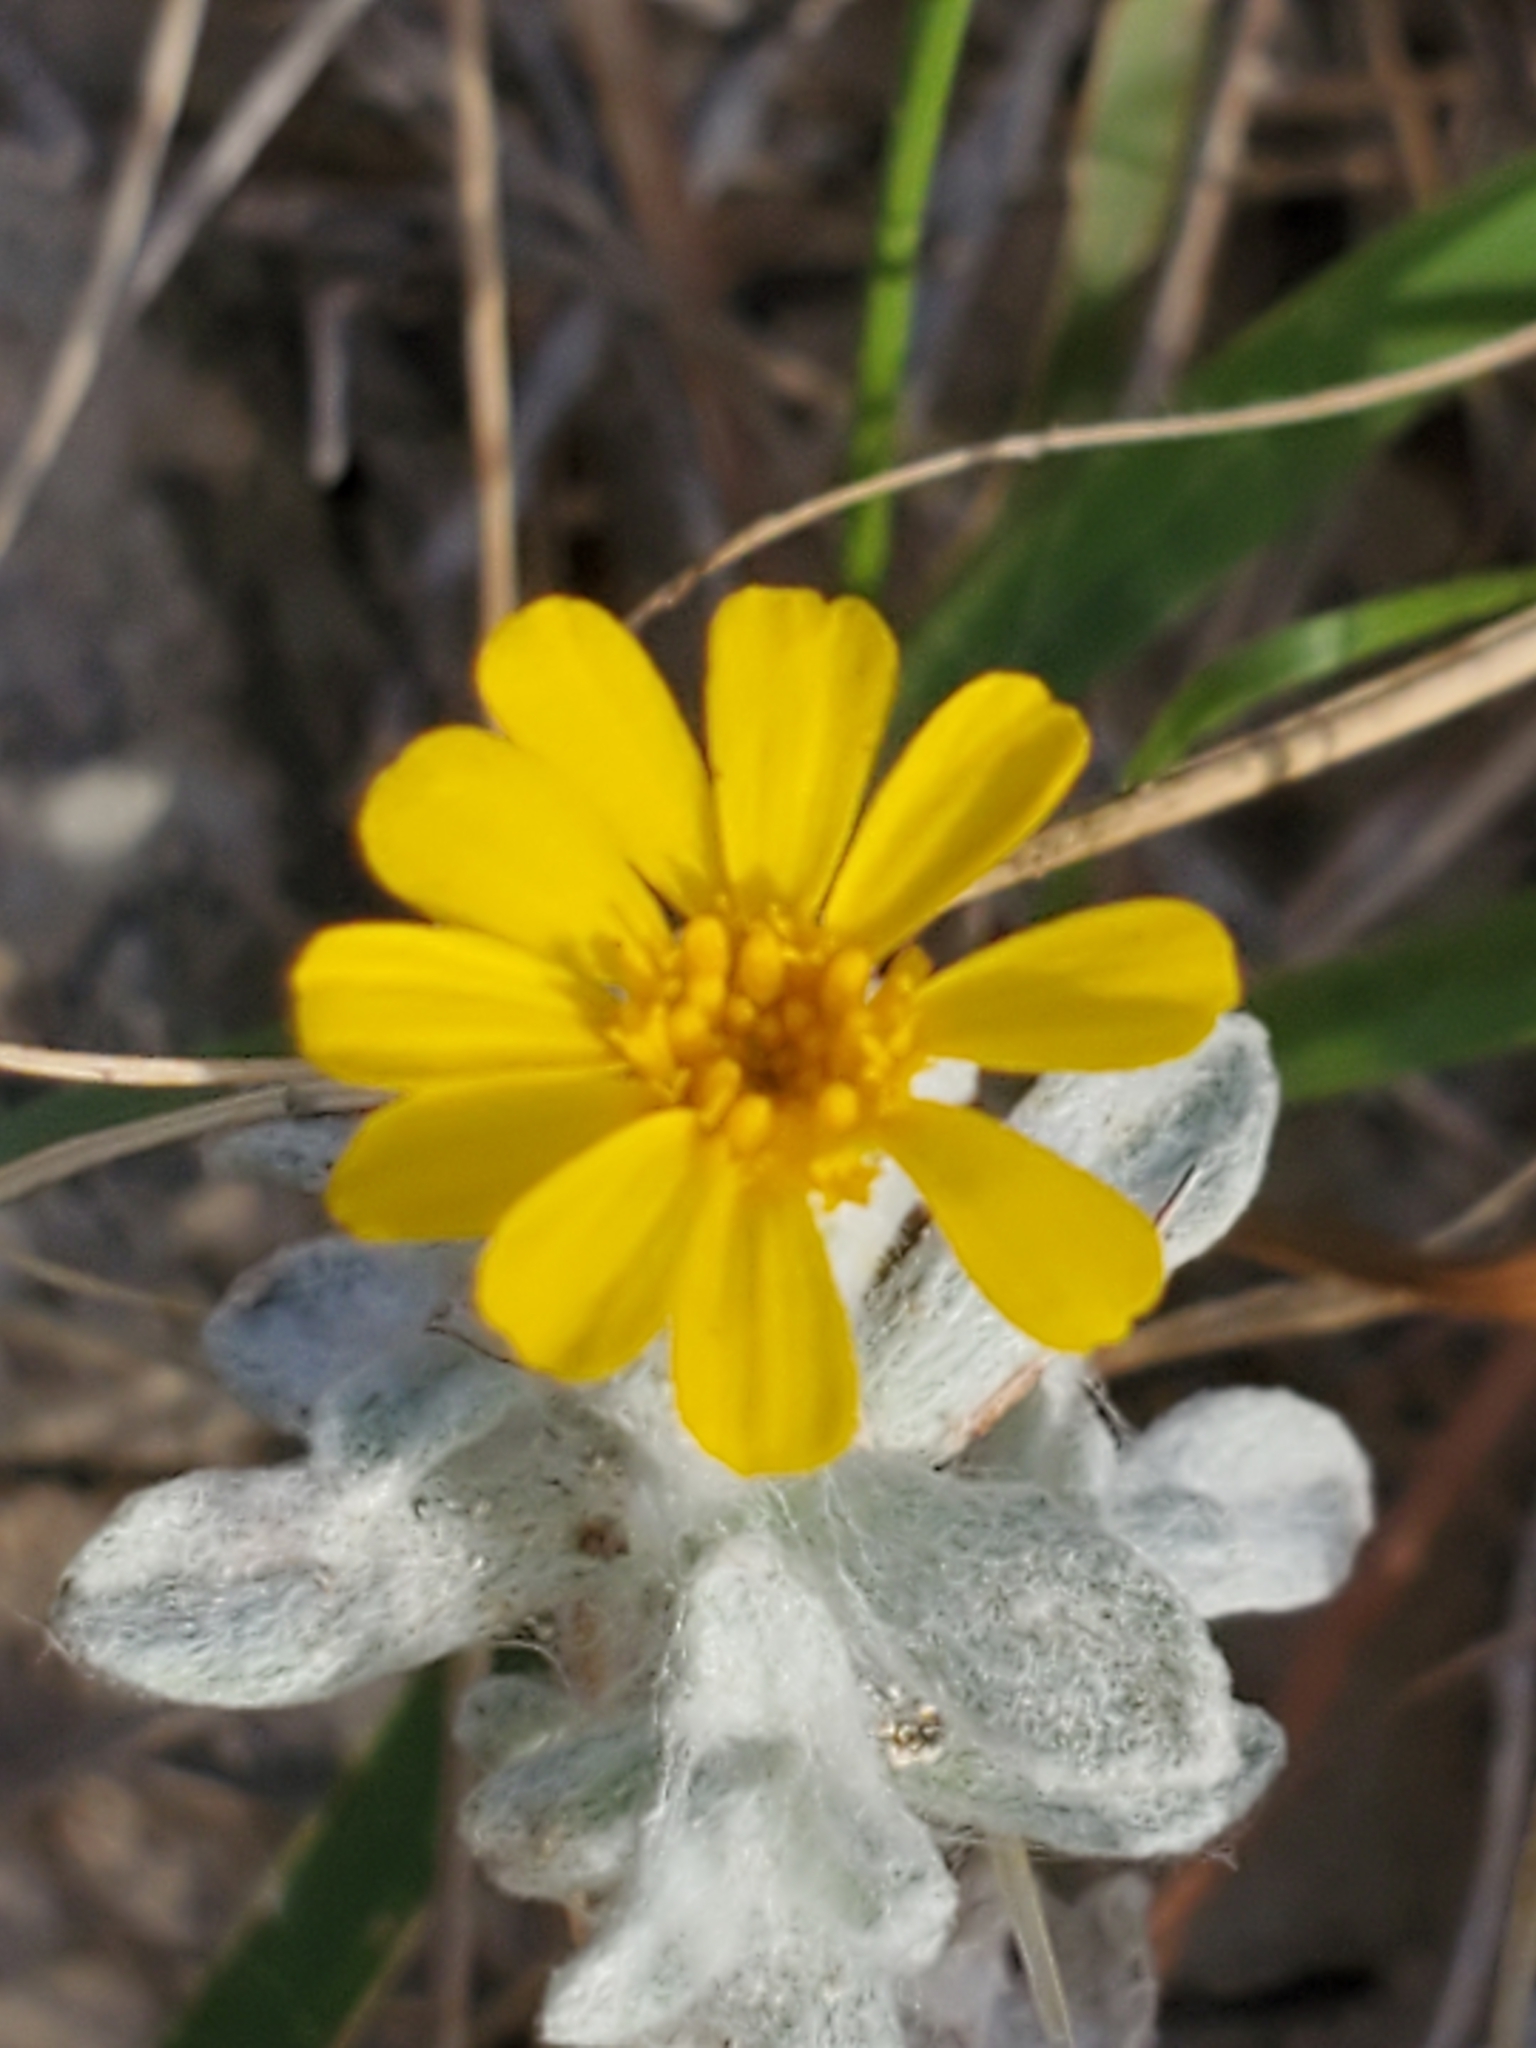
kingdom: Plantae
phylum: Tracheophyta
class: Magnoliopsida
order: Asterales
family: Asteraceae
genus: Thymophylla
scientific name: Thymophylla micropoides
